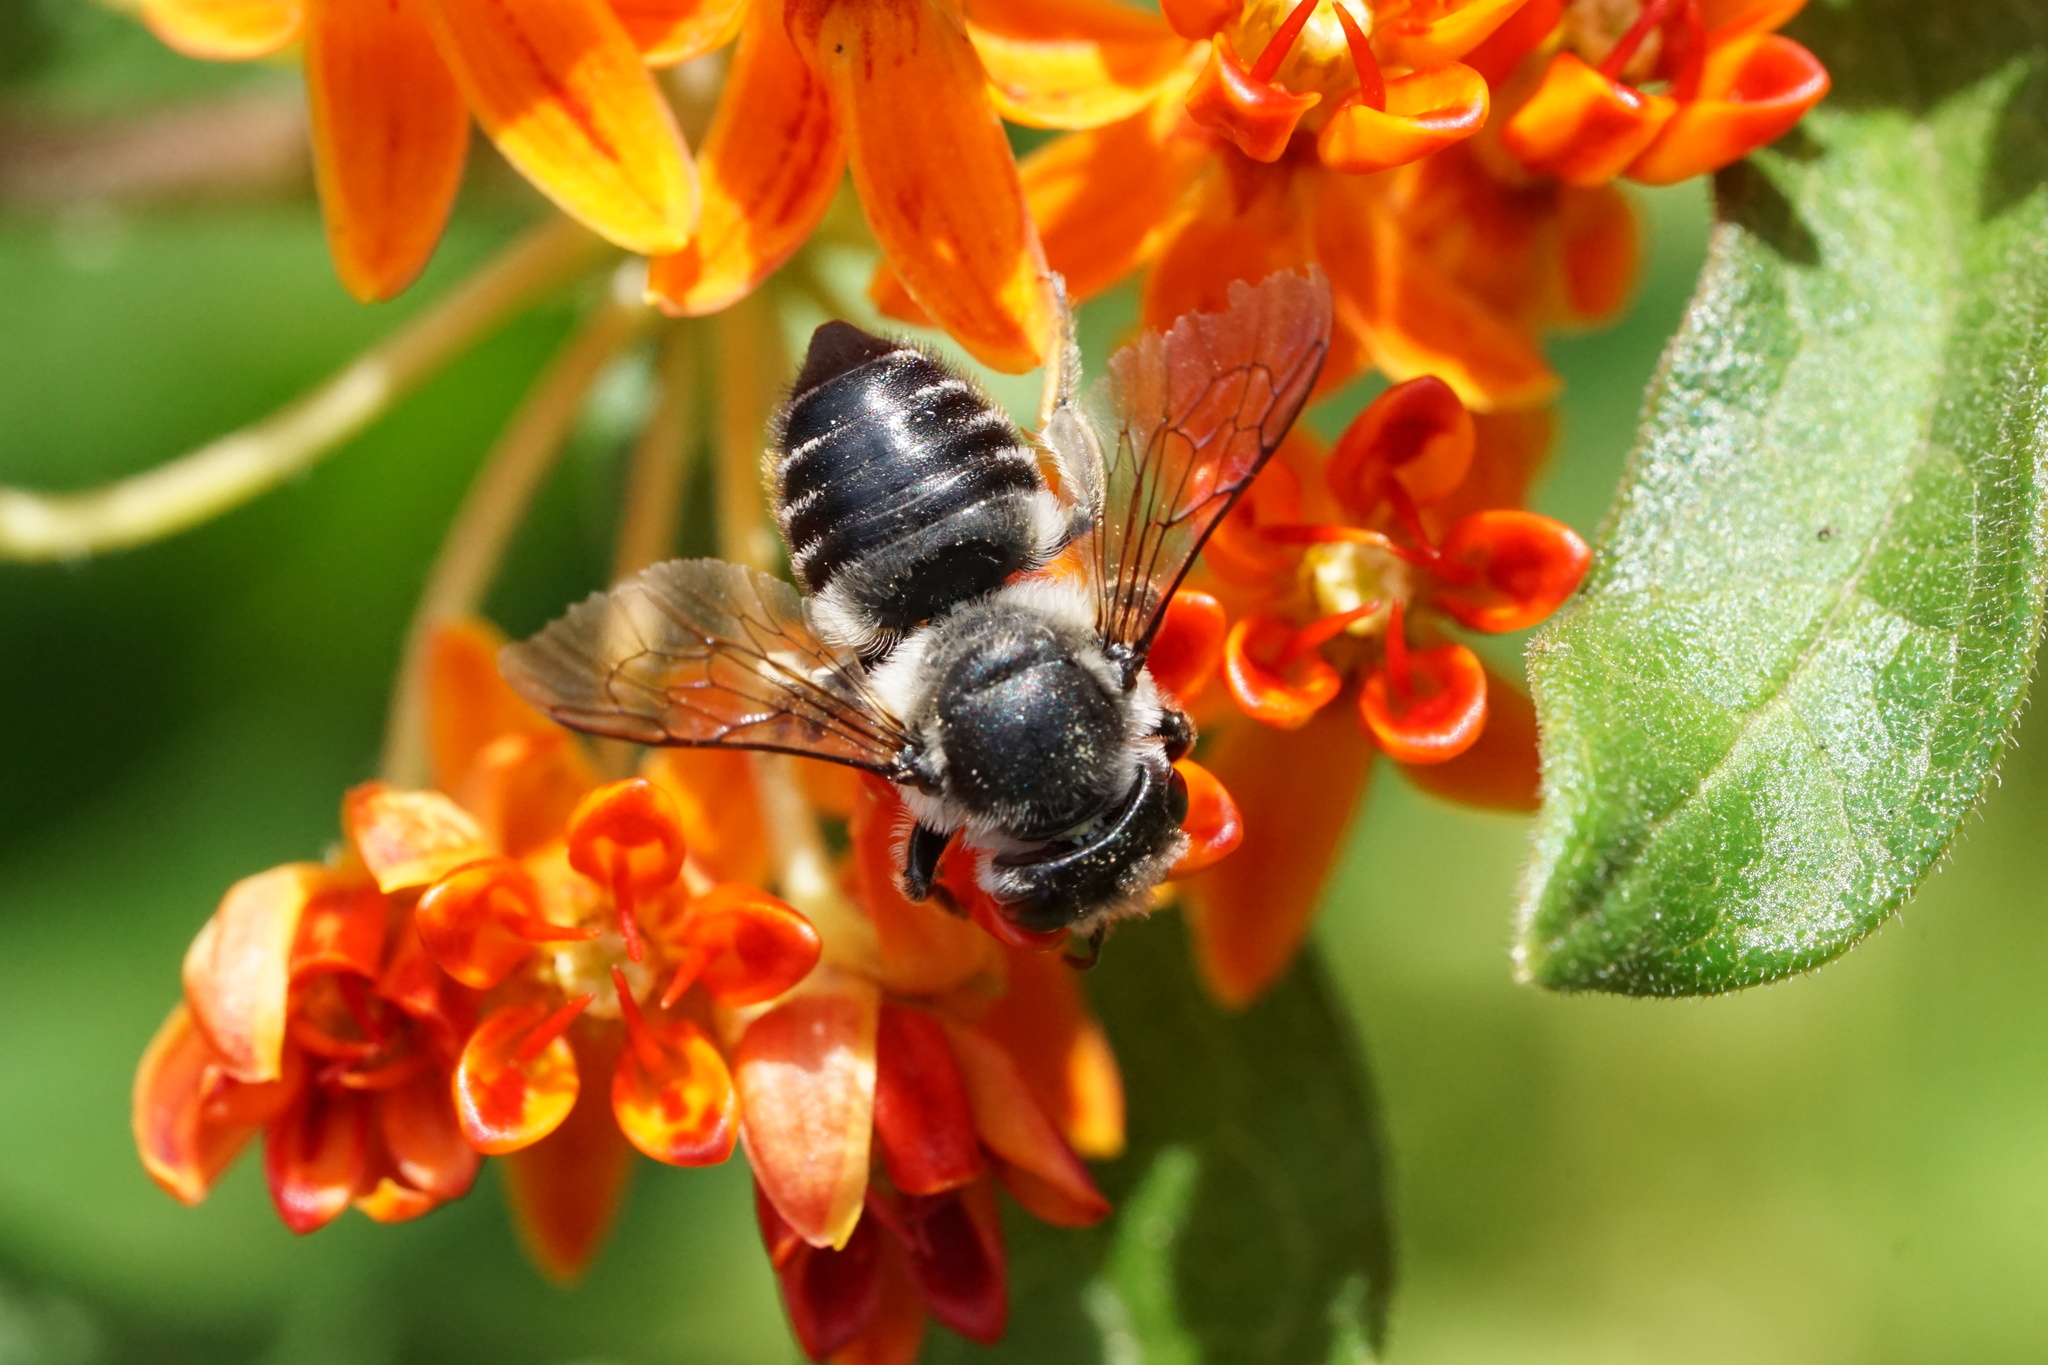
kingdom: Animalia
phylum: Arthropoda
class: Insecta
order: Hymenoptera
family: Megachilidae
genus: Megachile
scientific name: Megachile mendica
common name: Flat-tailed leafcutter
